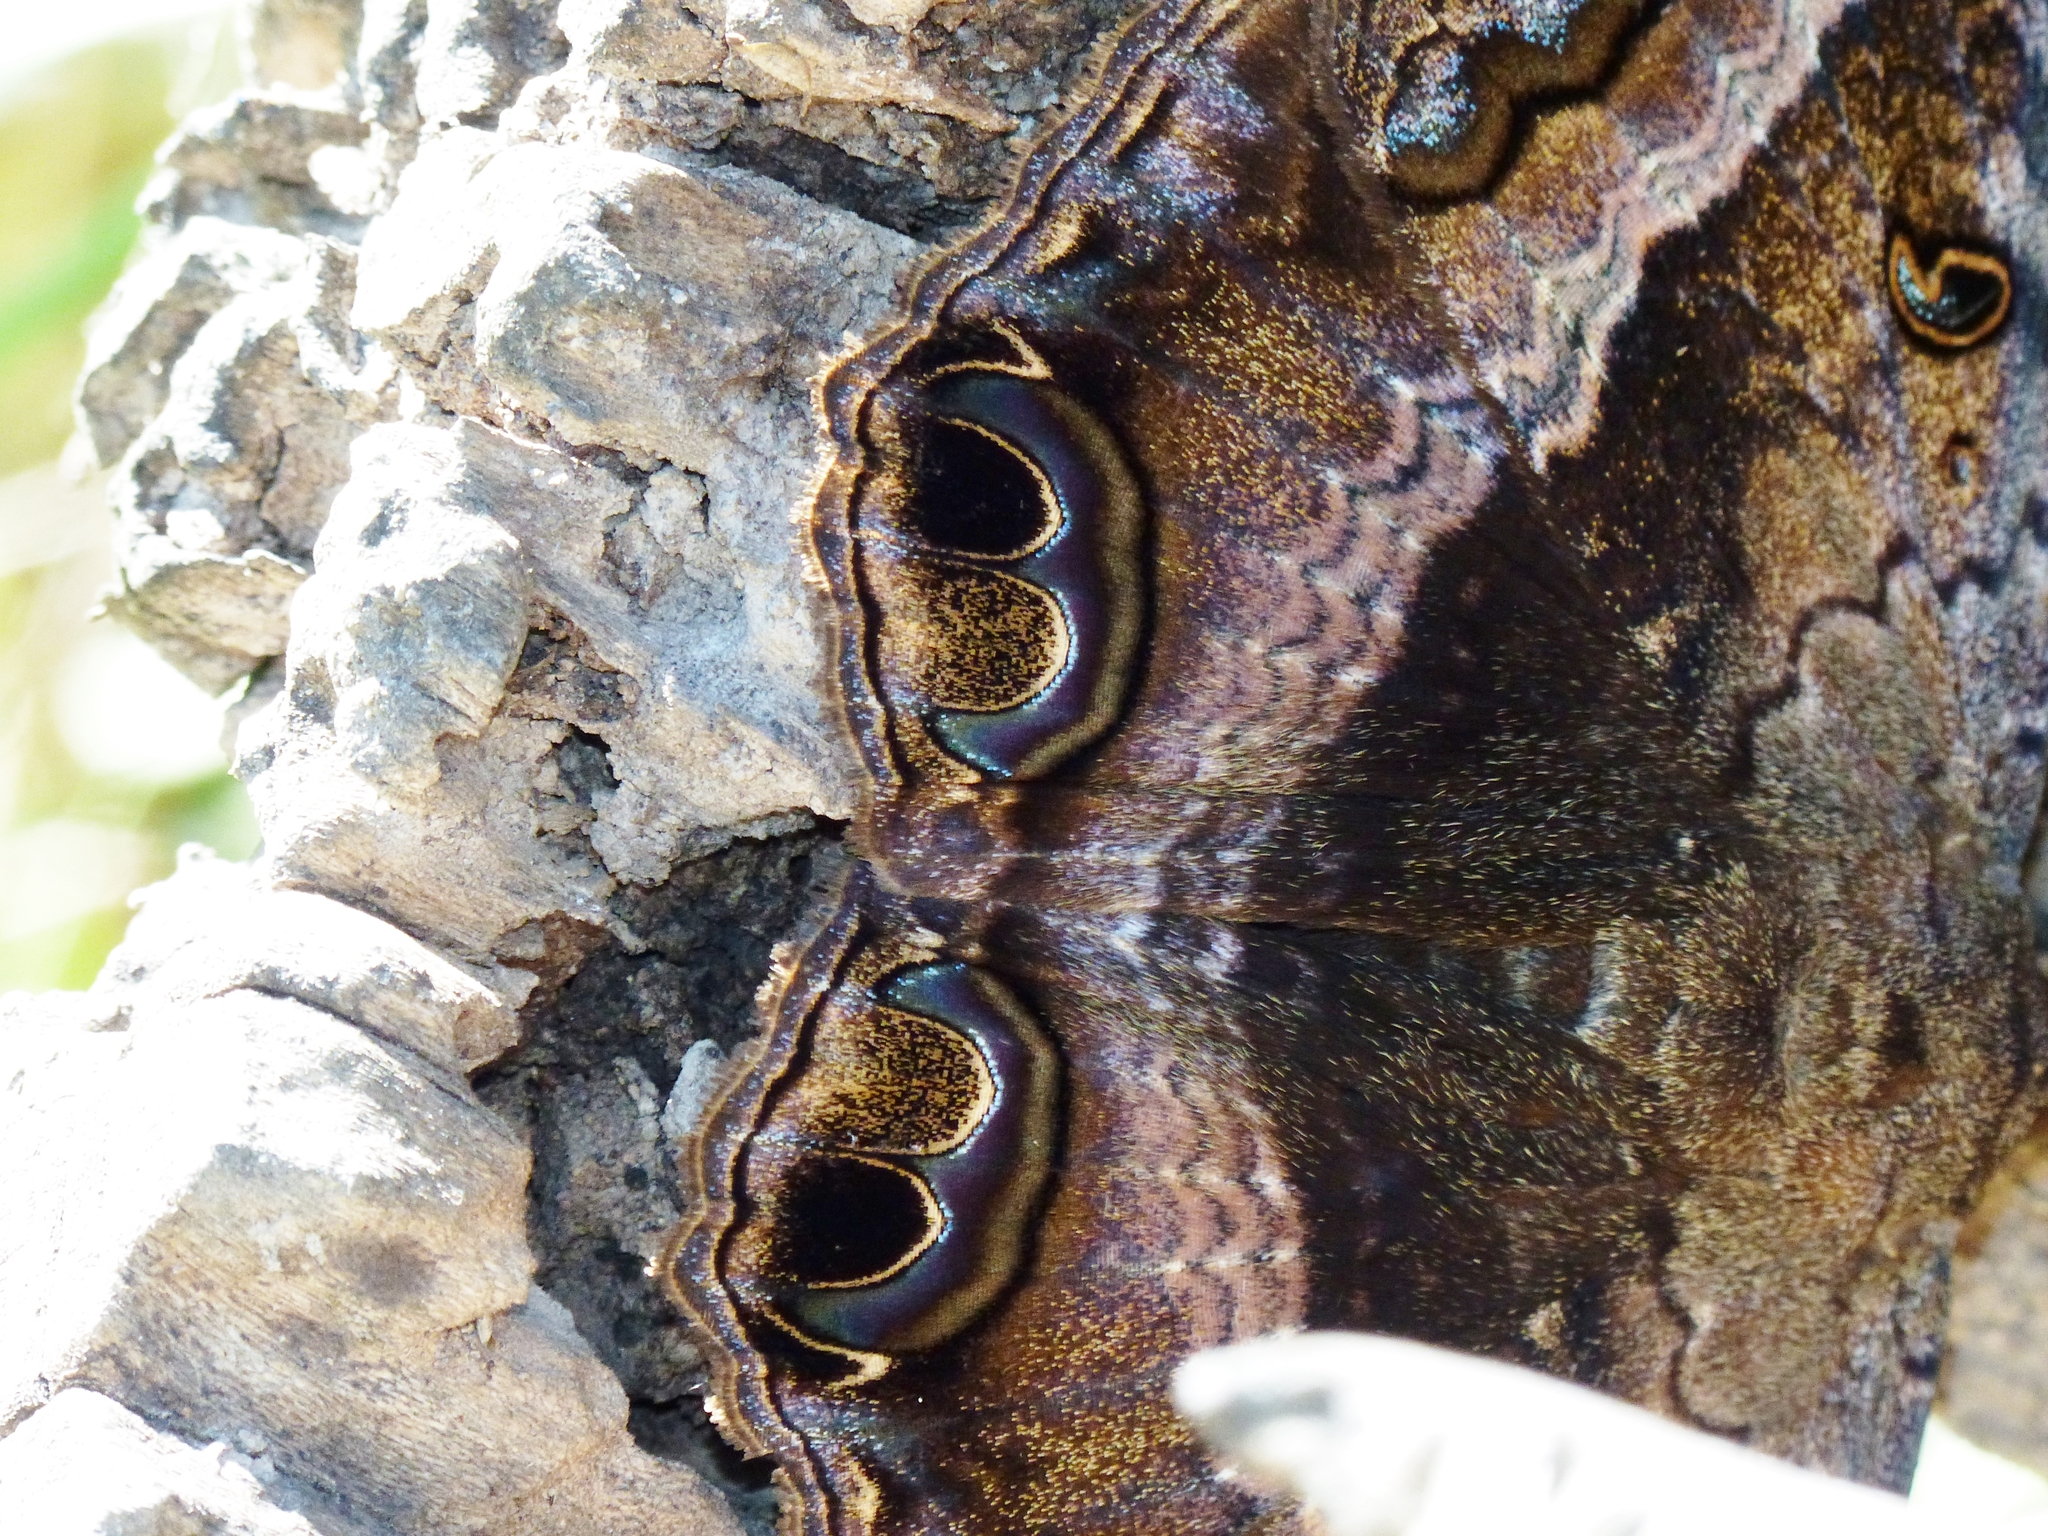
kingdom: Animalia
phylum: Arthropoda
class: Insecta
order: Lepidoptera
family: Erebidae
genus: Ascalapha
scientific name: Ascalapha odorata
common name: Black witch
